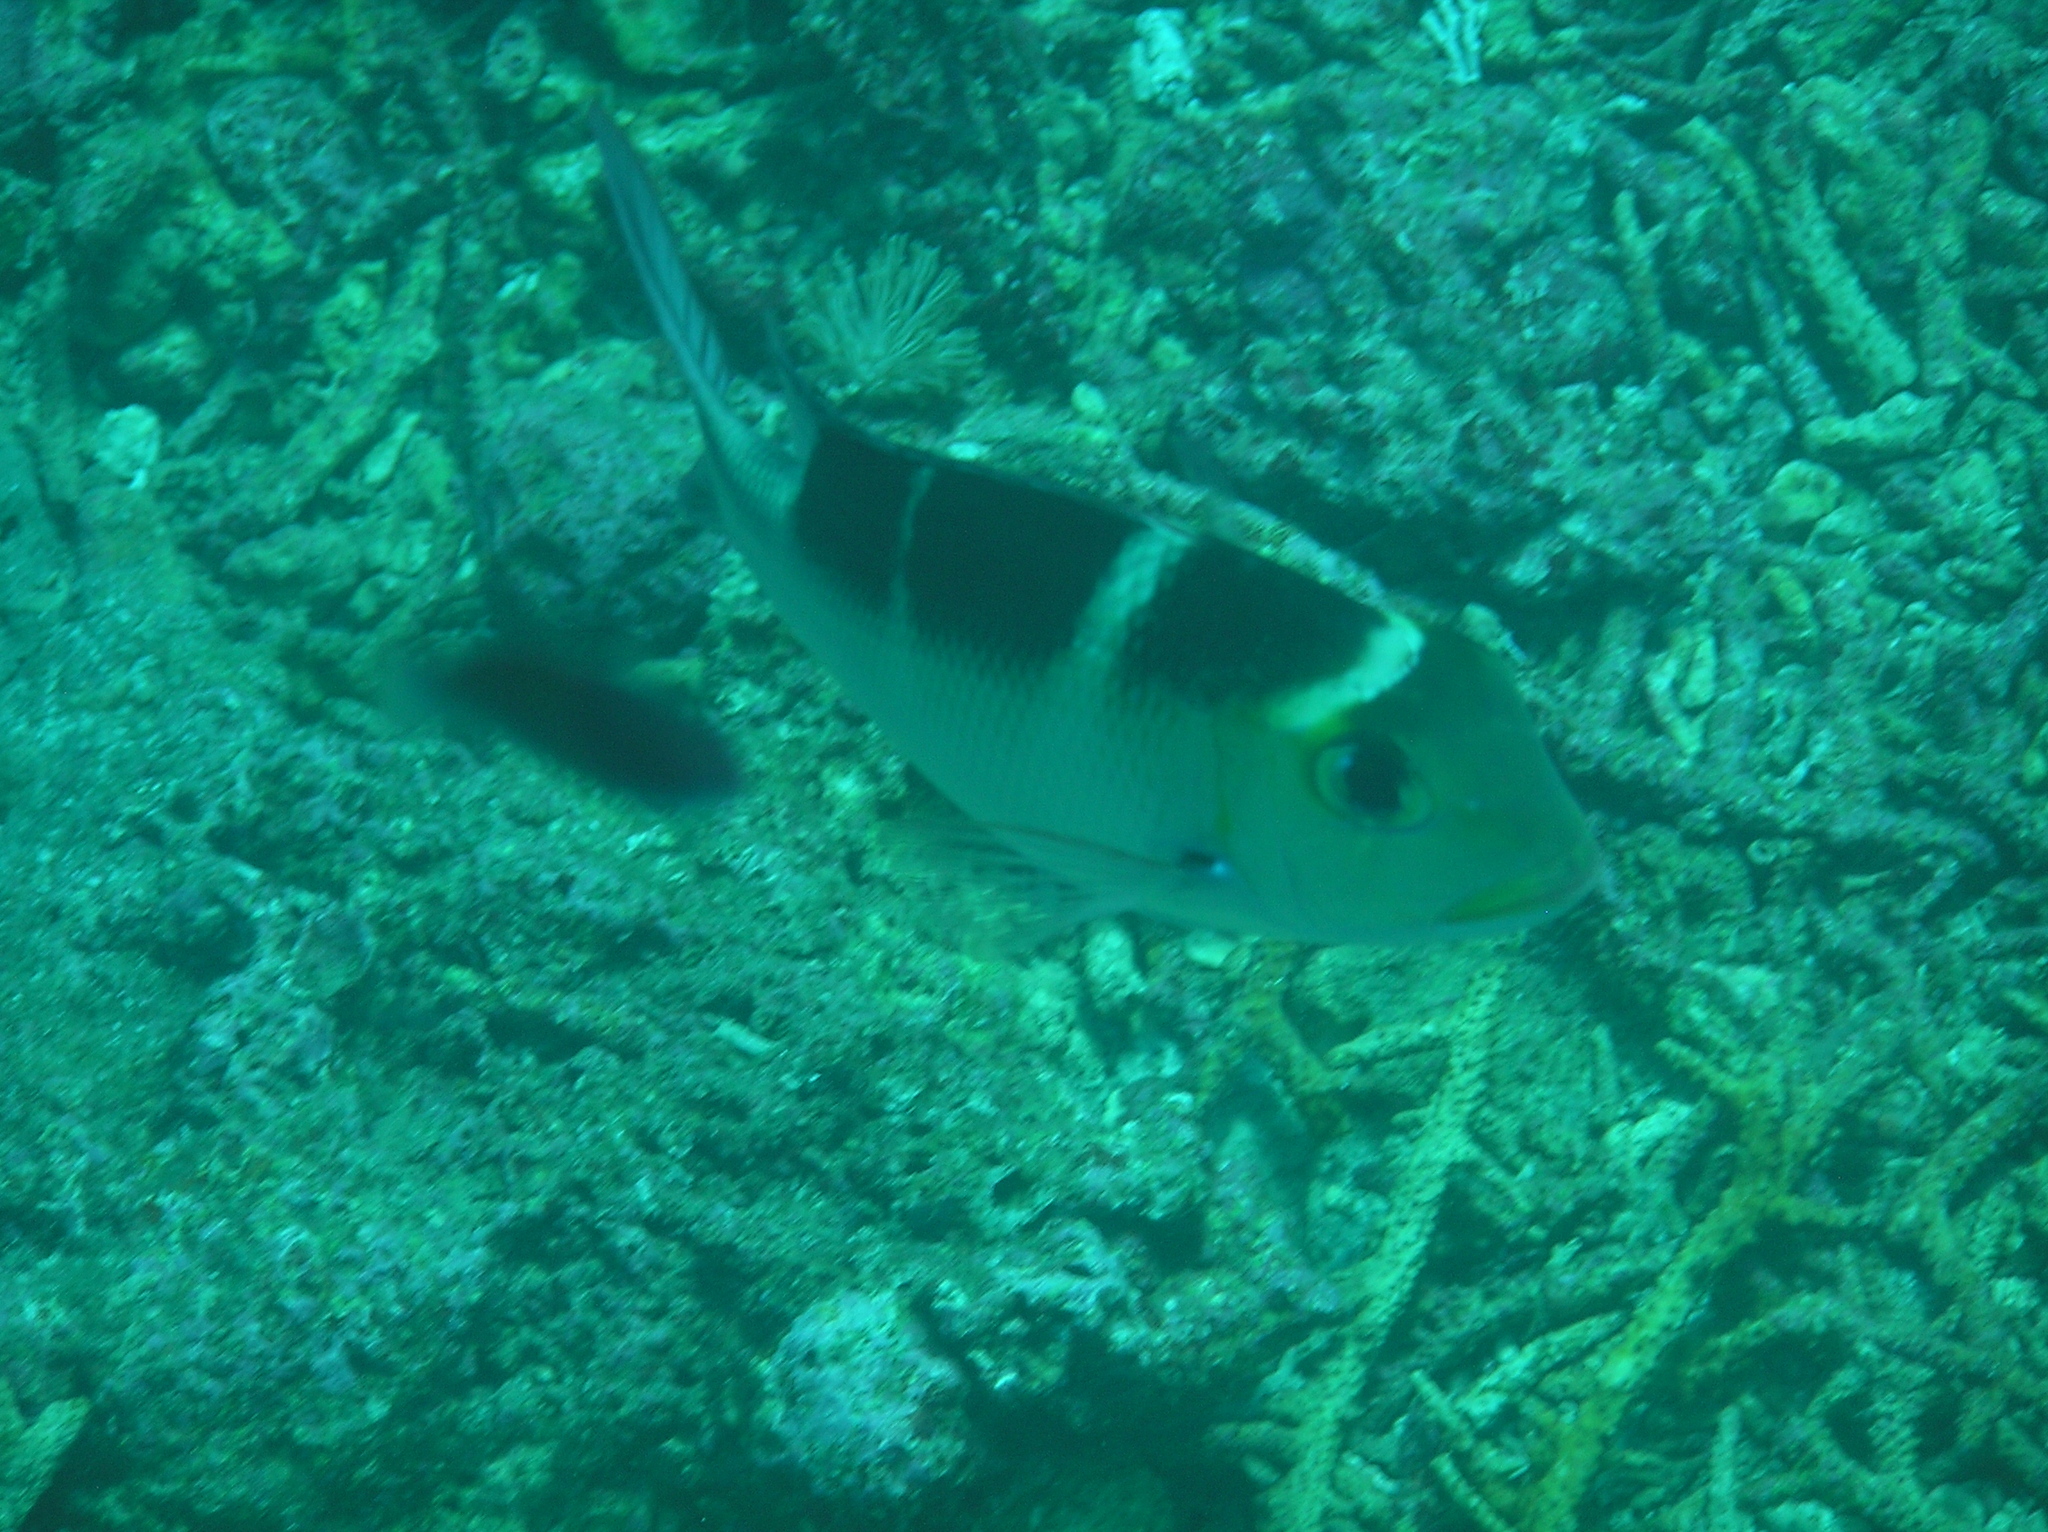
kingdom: Animalia
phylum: Chordata
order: Perciformes
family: Lethrinidae
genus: Monotaxis
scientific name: Monotaxis grandoculis
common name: Bigeye emperor
